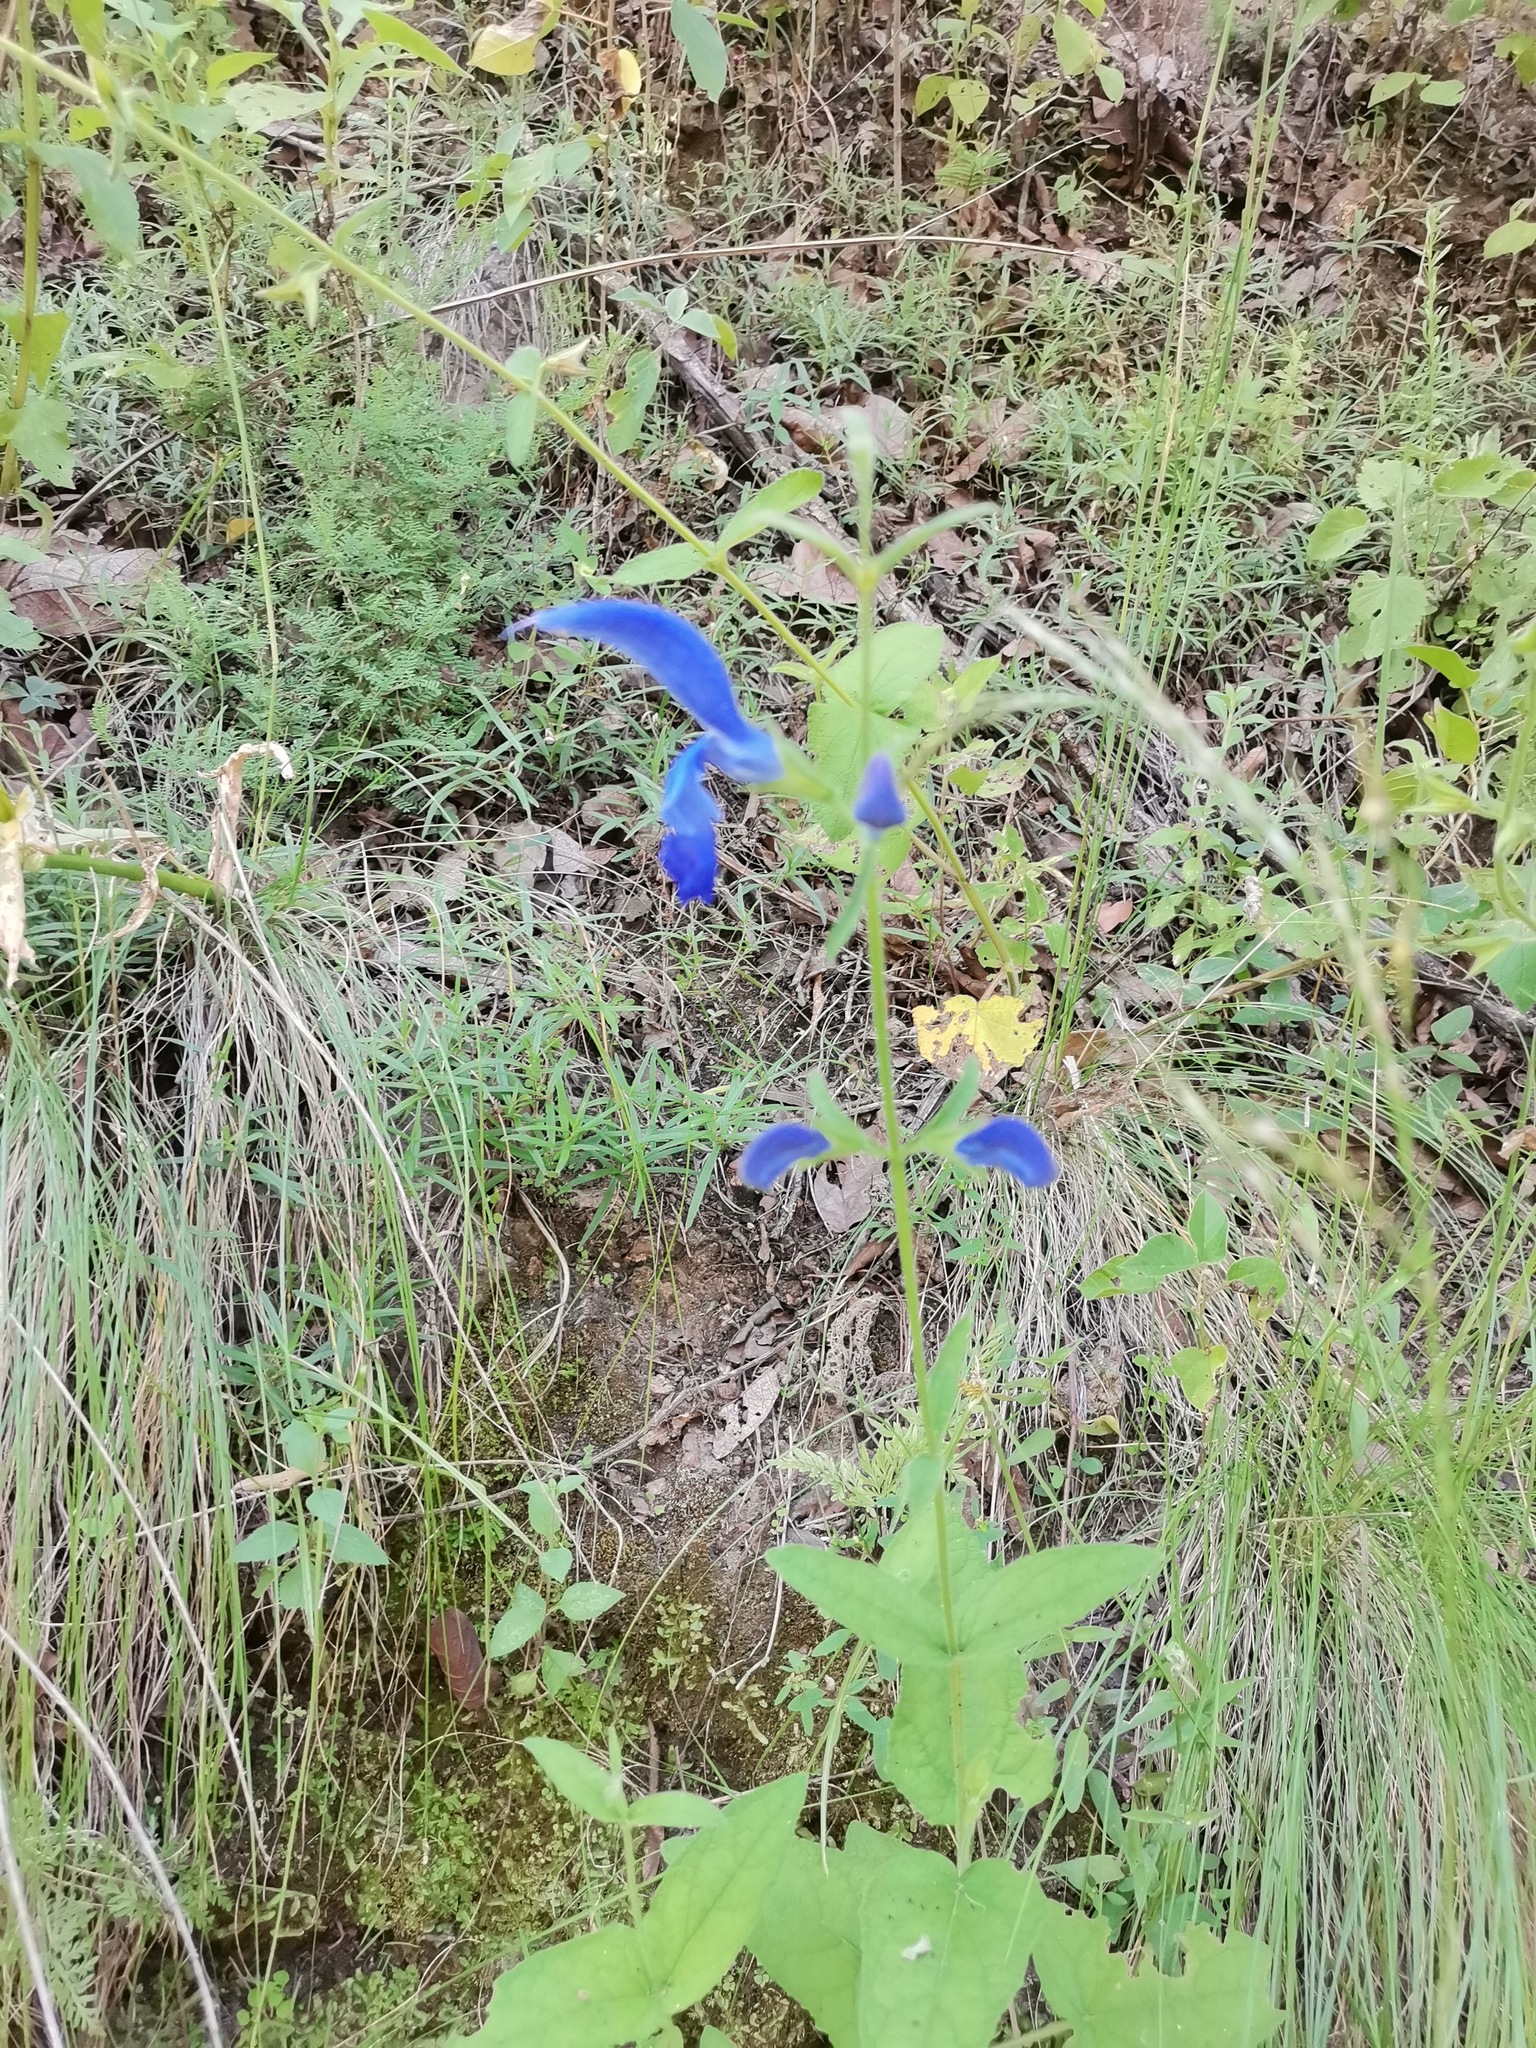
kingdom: Plantae
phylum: Tracheophyta
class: Magnoliopsida
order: Lamiales
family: Lamiaceae
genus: Salvia
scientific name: Salvia patens
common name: Blue sage
